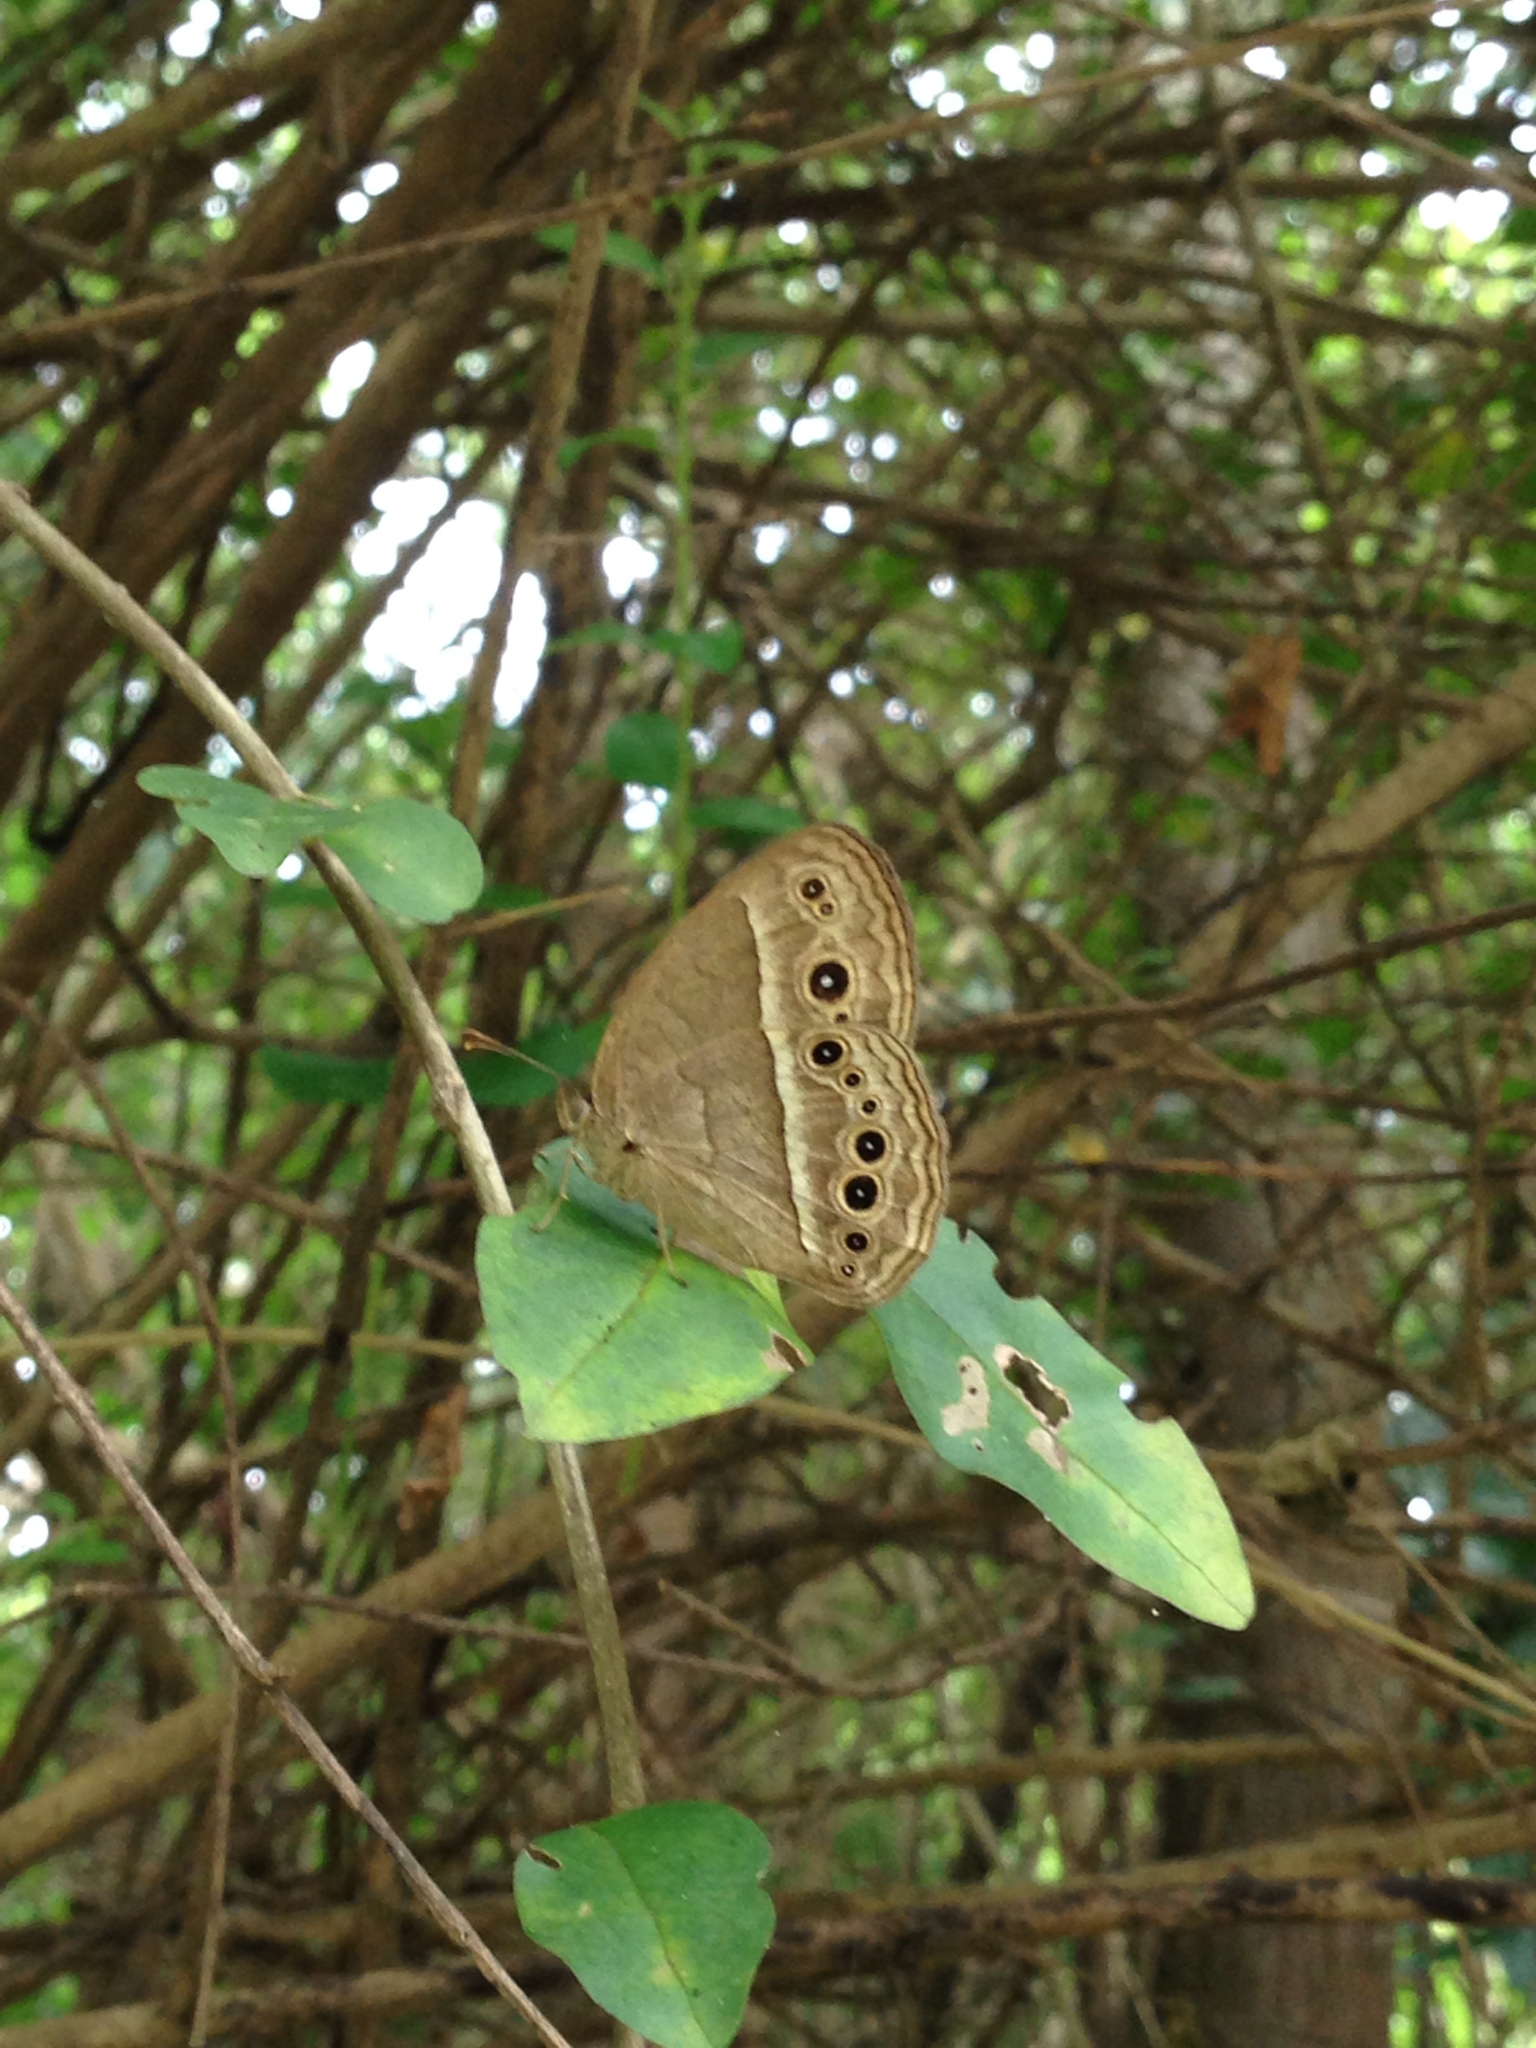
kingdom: Animalia
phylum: Arthropoda
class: Insecta
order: Lepidoptera
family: Nymphalidae
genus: Mycalesis
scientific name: Mycalesis mineus
